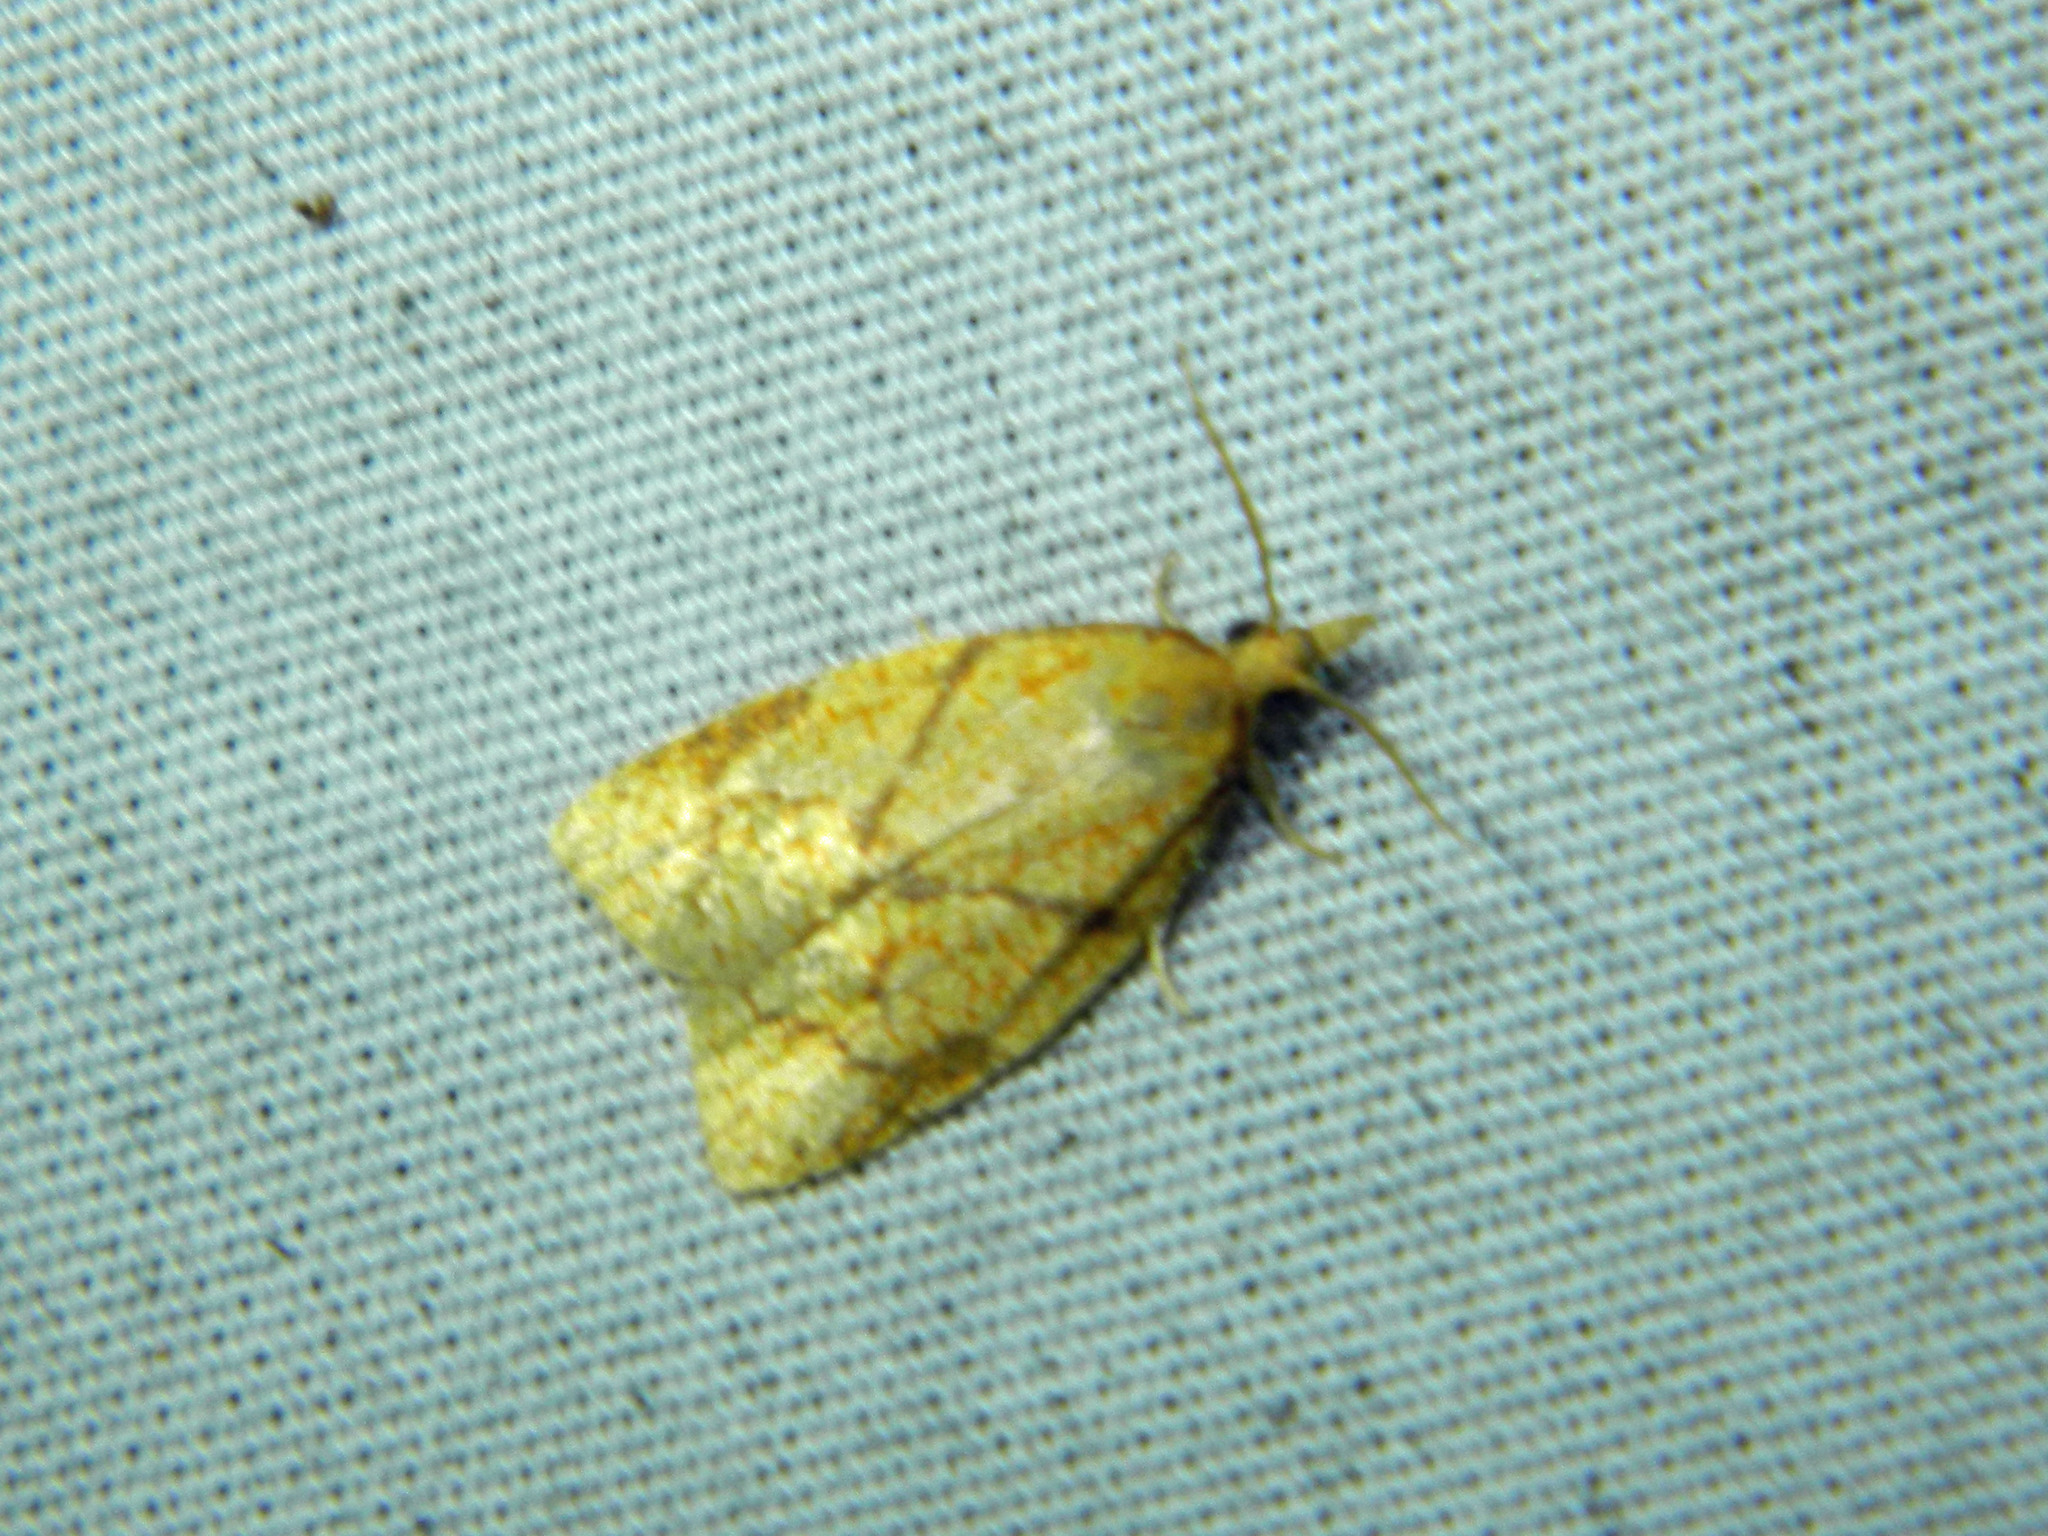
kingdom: Animalia
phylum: Arthropoda
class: Insecta
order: Lepidoptera
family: Tortricidae
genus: Cenopis
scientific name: Cenopis reticulatana
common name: Reticulated fruitworm moth
